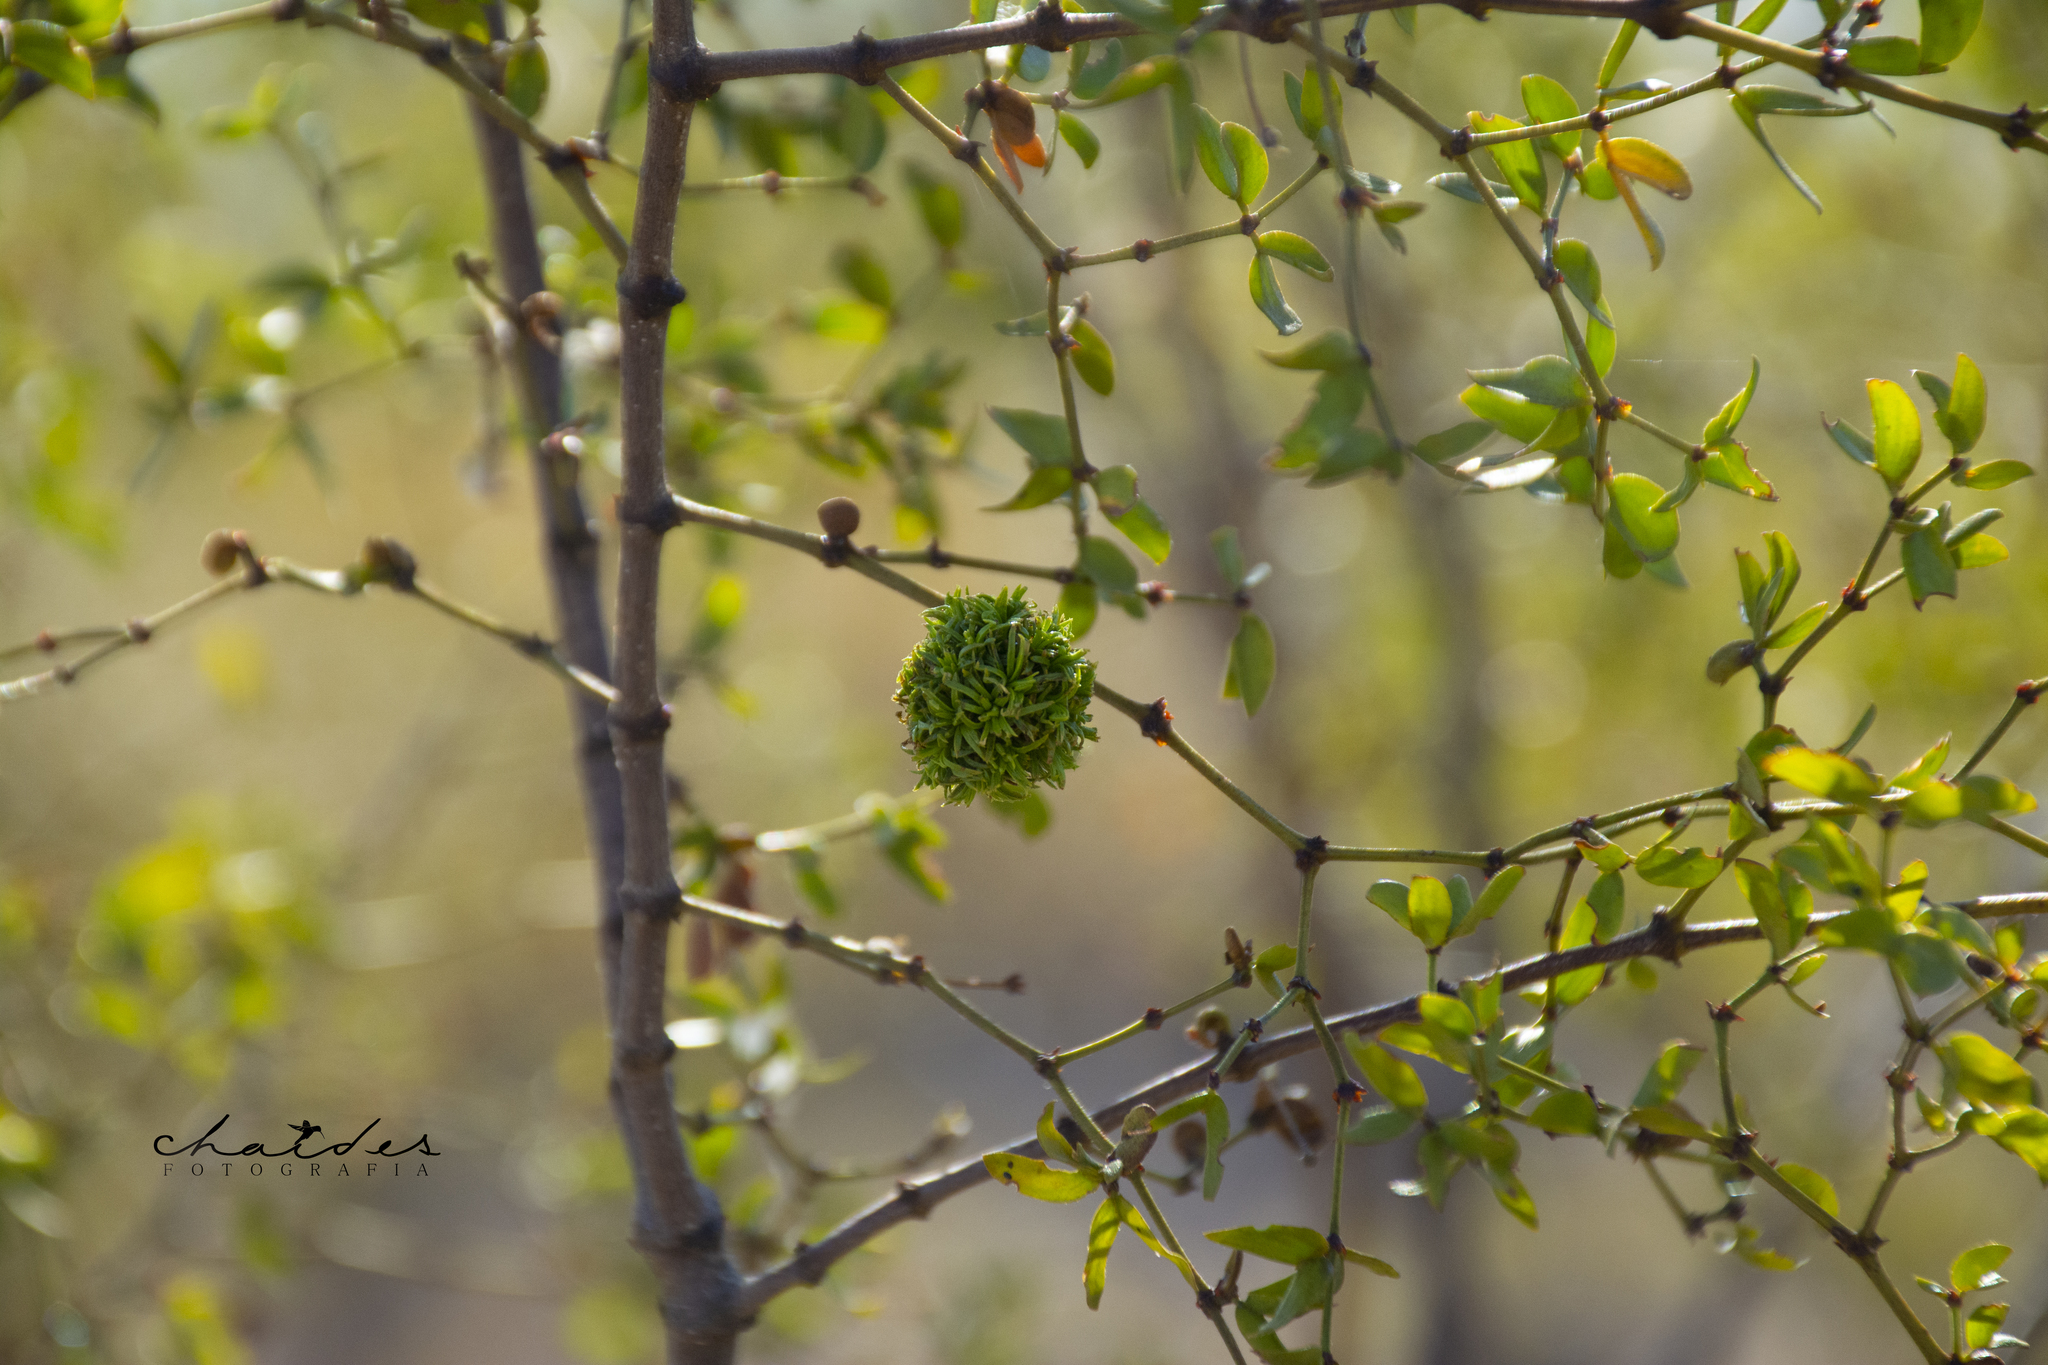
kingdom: Animalia
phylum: Arthropoda
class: Insecta
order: Diptera
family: Cecidomyiidae
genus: Asphondylia
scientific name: Asphondylia auripila
